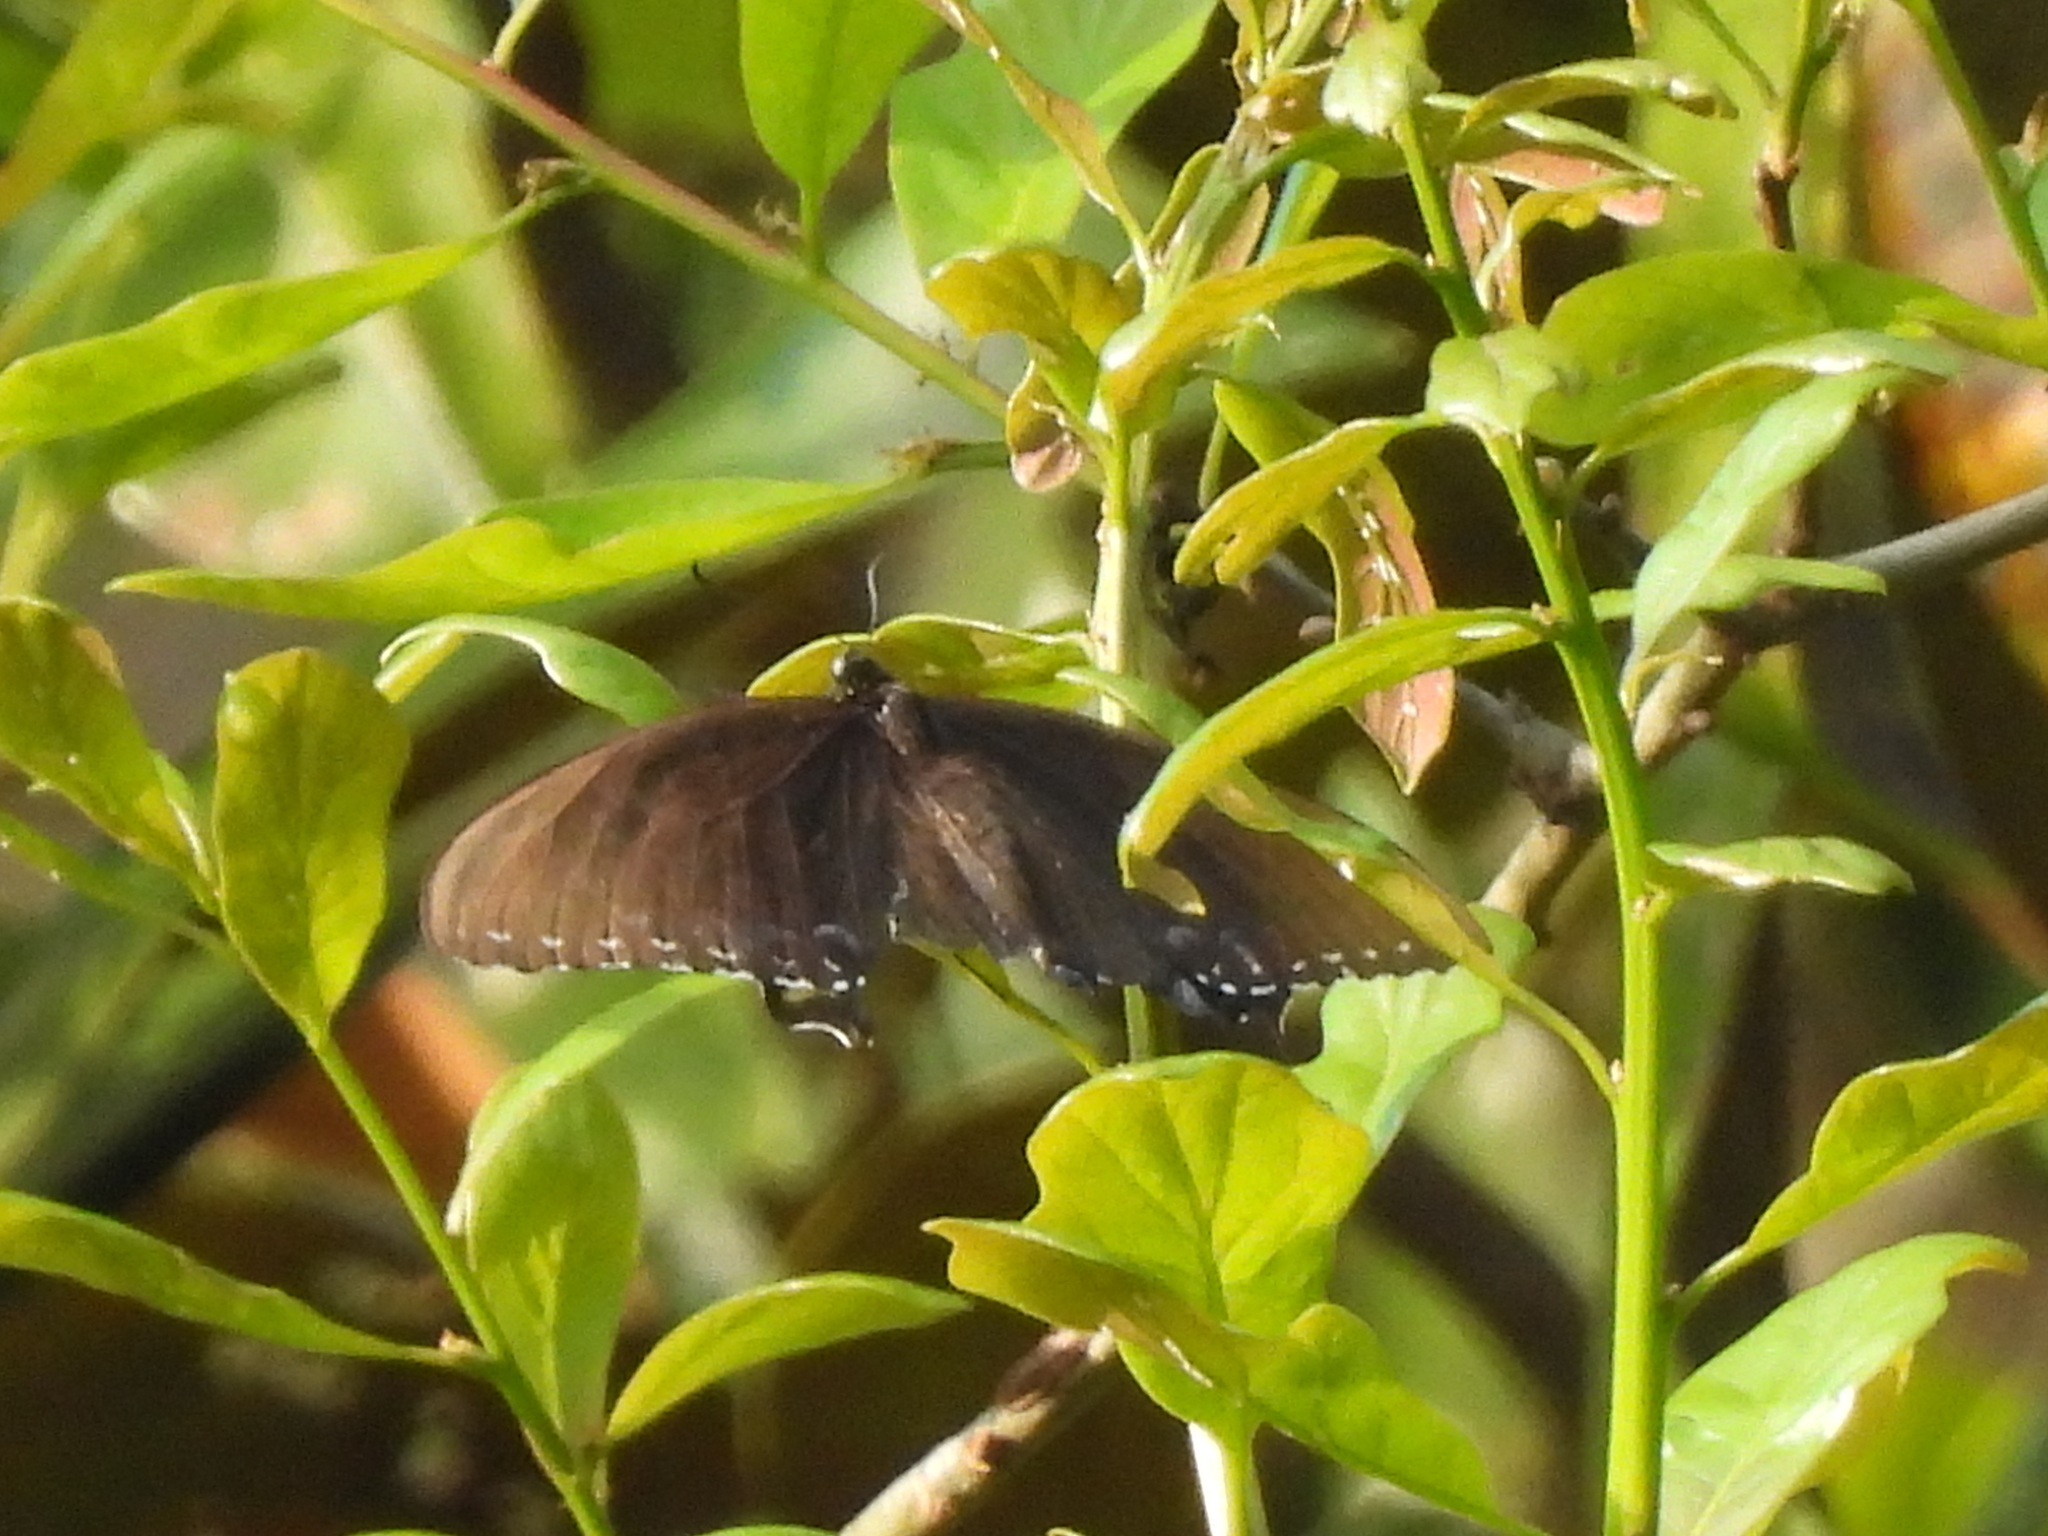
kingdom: Animalia
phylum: Arthropoda
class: Insecta
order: Lepidoptera
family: Papilionidae
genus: Papilio
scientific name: Papilio glaucus
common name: Tiger swallowtail
